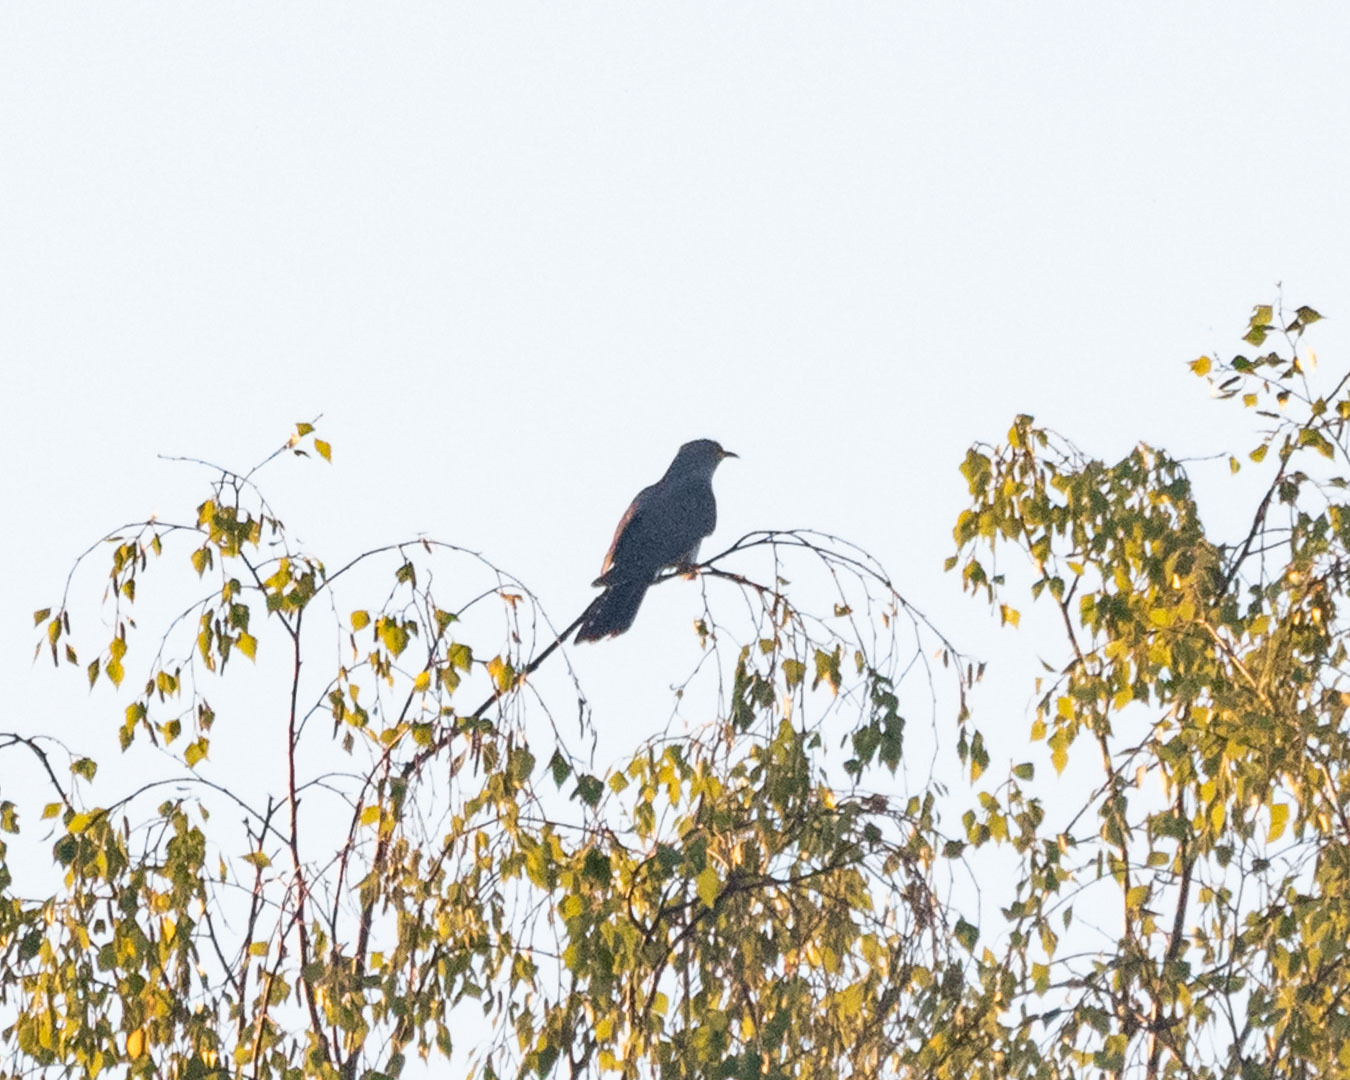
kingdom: Animalia
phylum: Chordata
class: Aves
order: Cuculiformes
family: Cuculidae
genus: Cuculus
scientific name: Cuculus canorus
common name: Common cuckoo
